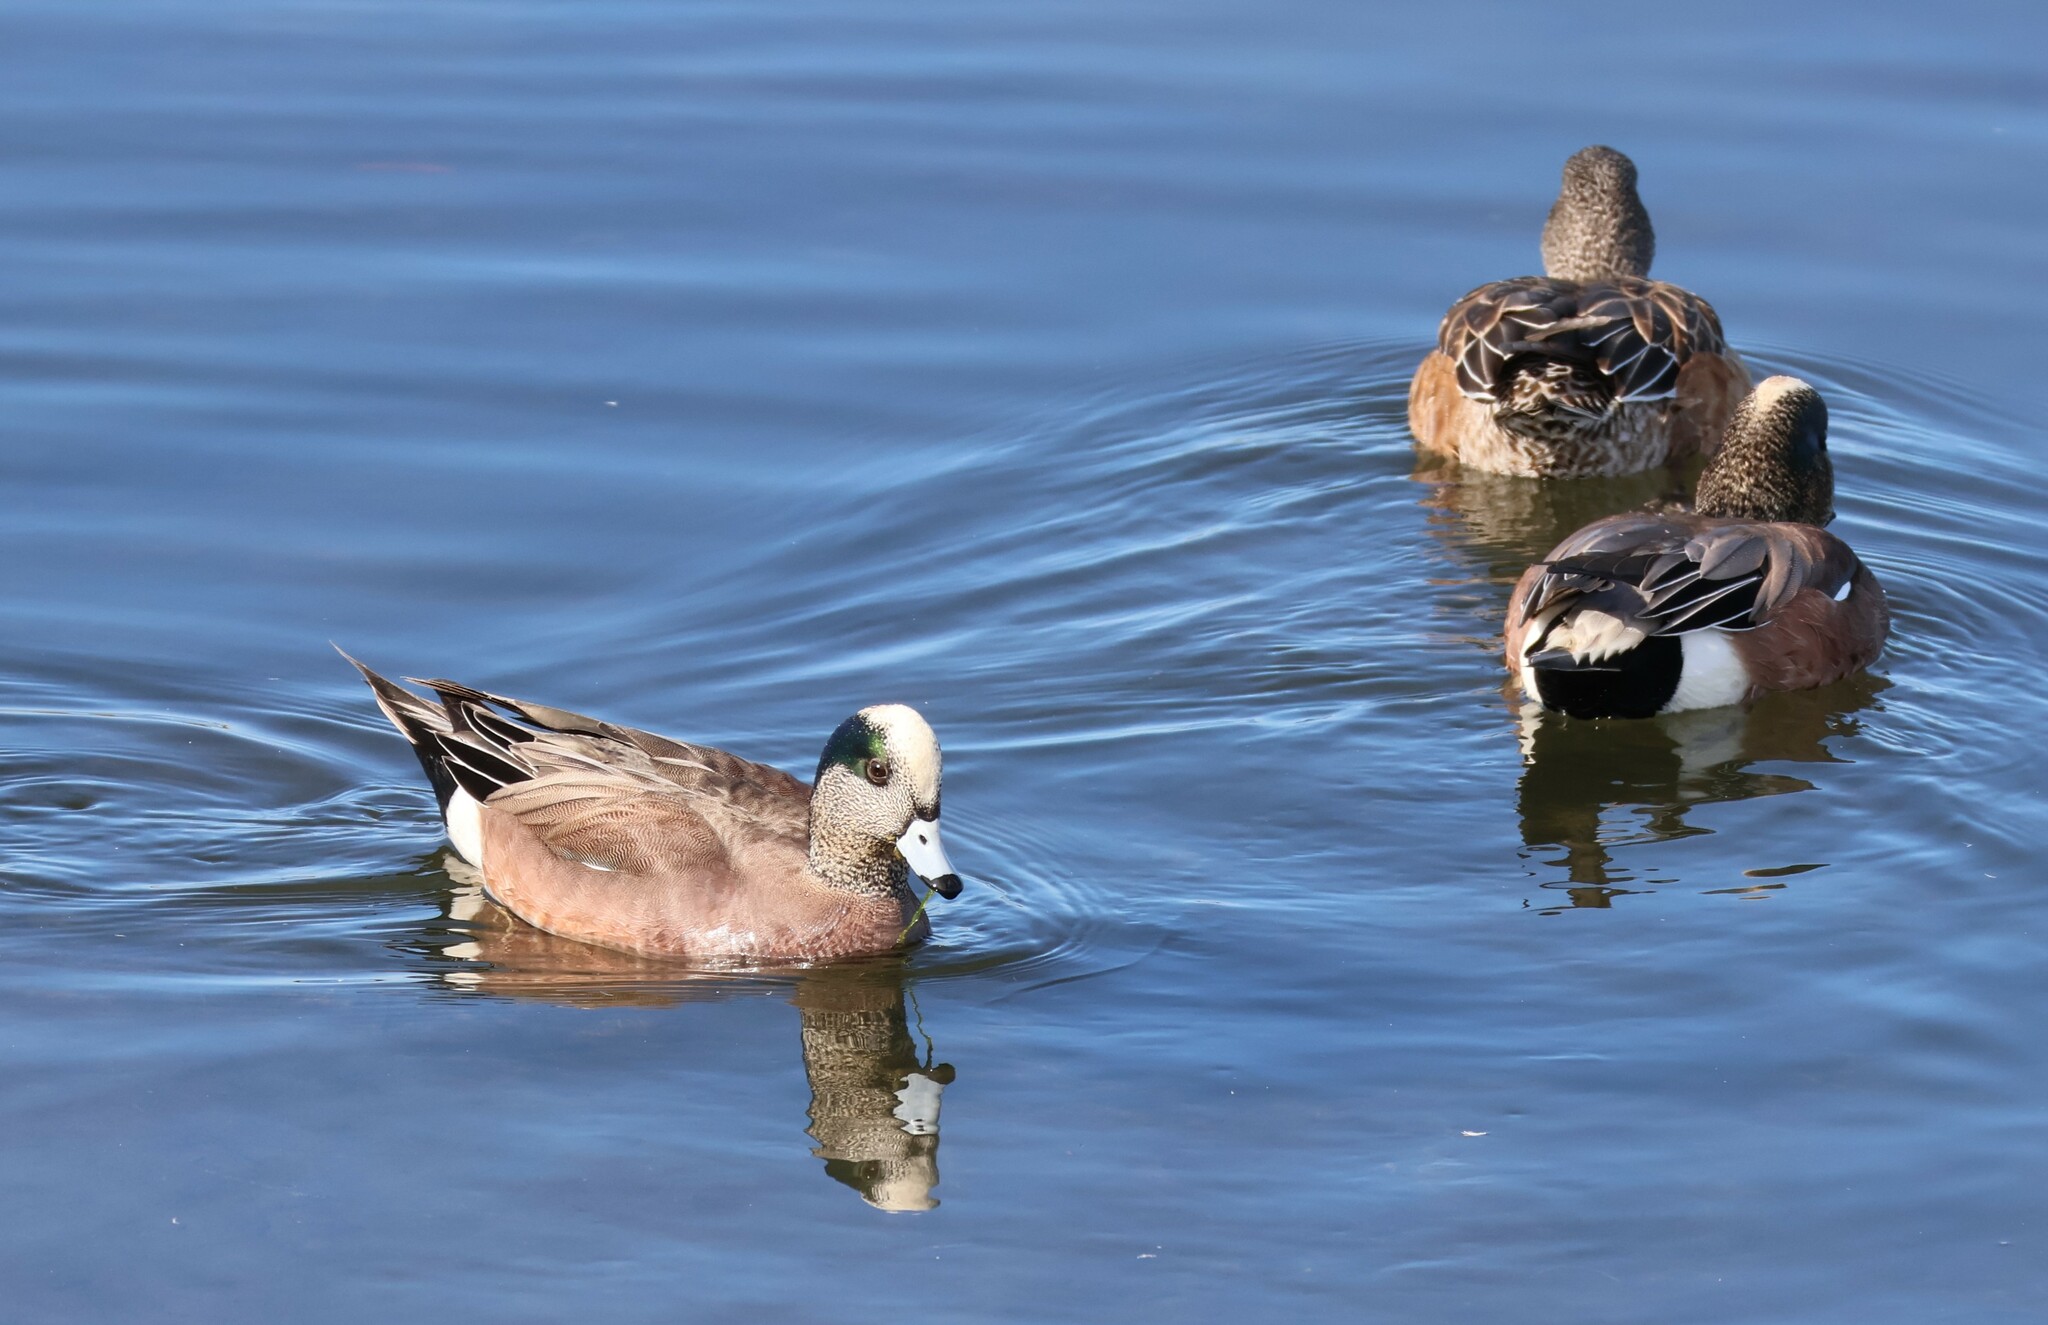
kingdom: Animalia
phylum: Chordata
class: Aves
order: Anseriformes
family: Anatidae
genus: Mareca
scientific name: Mareca americana
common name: American wigeon
